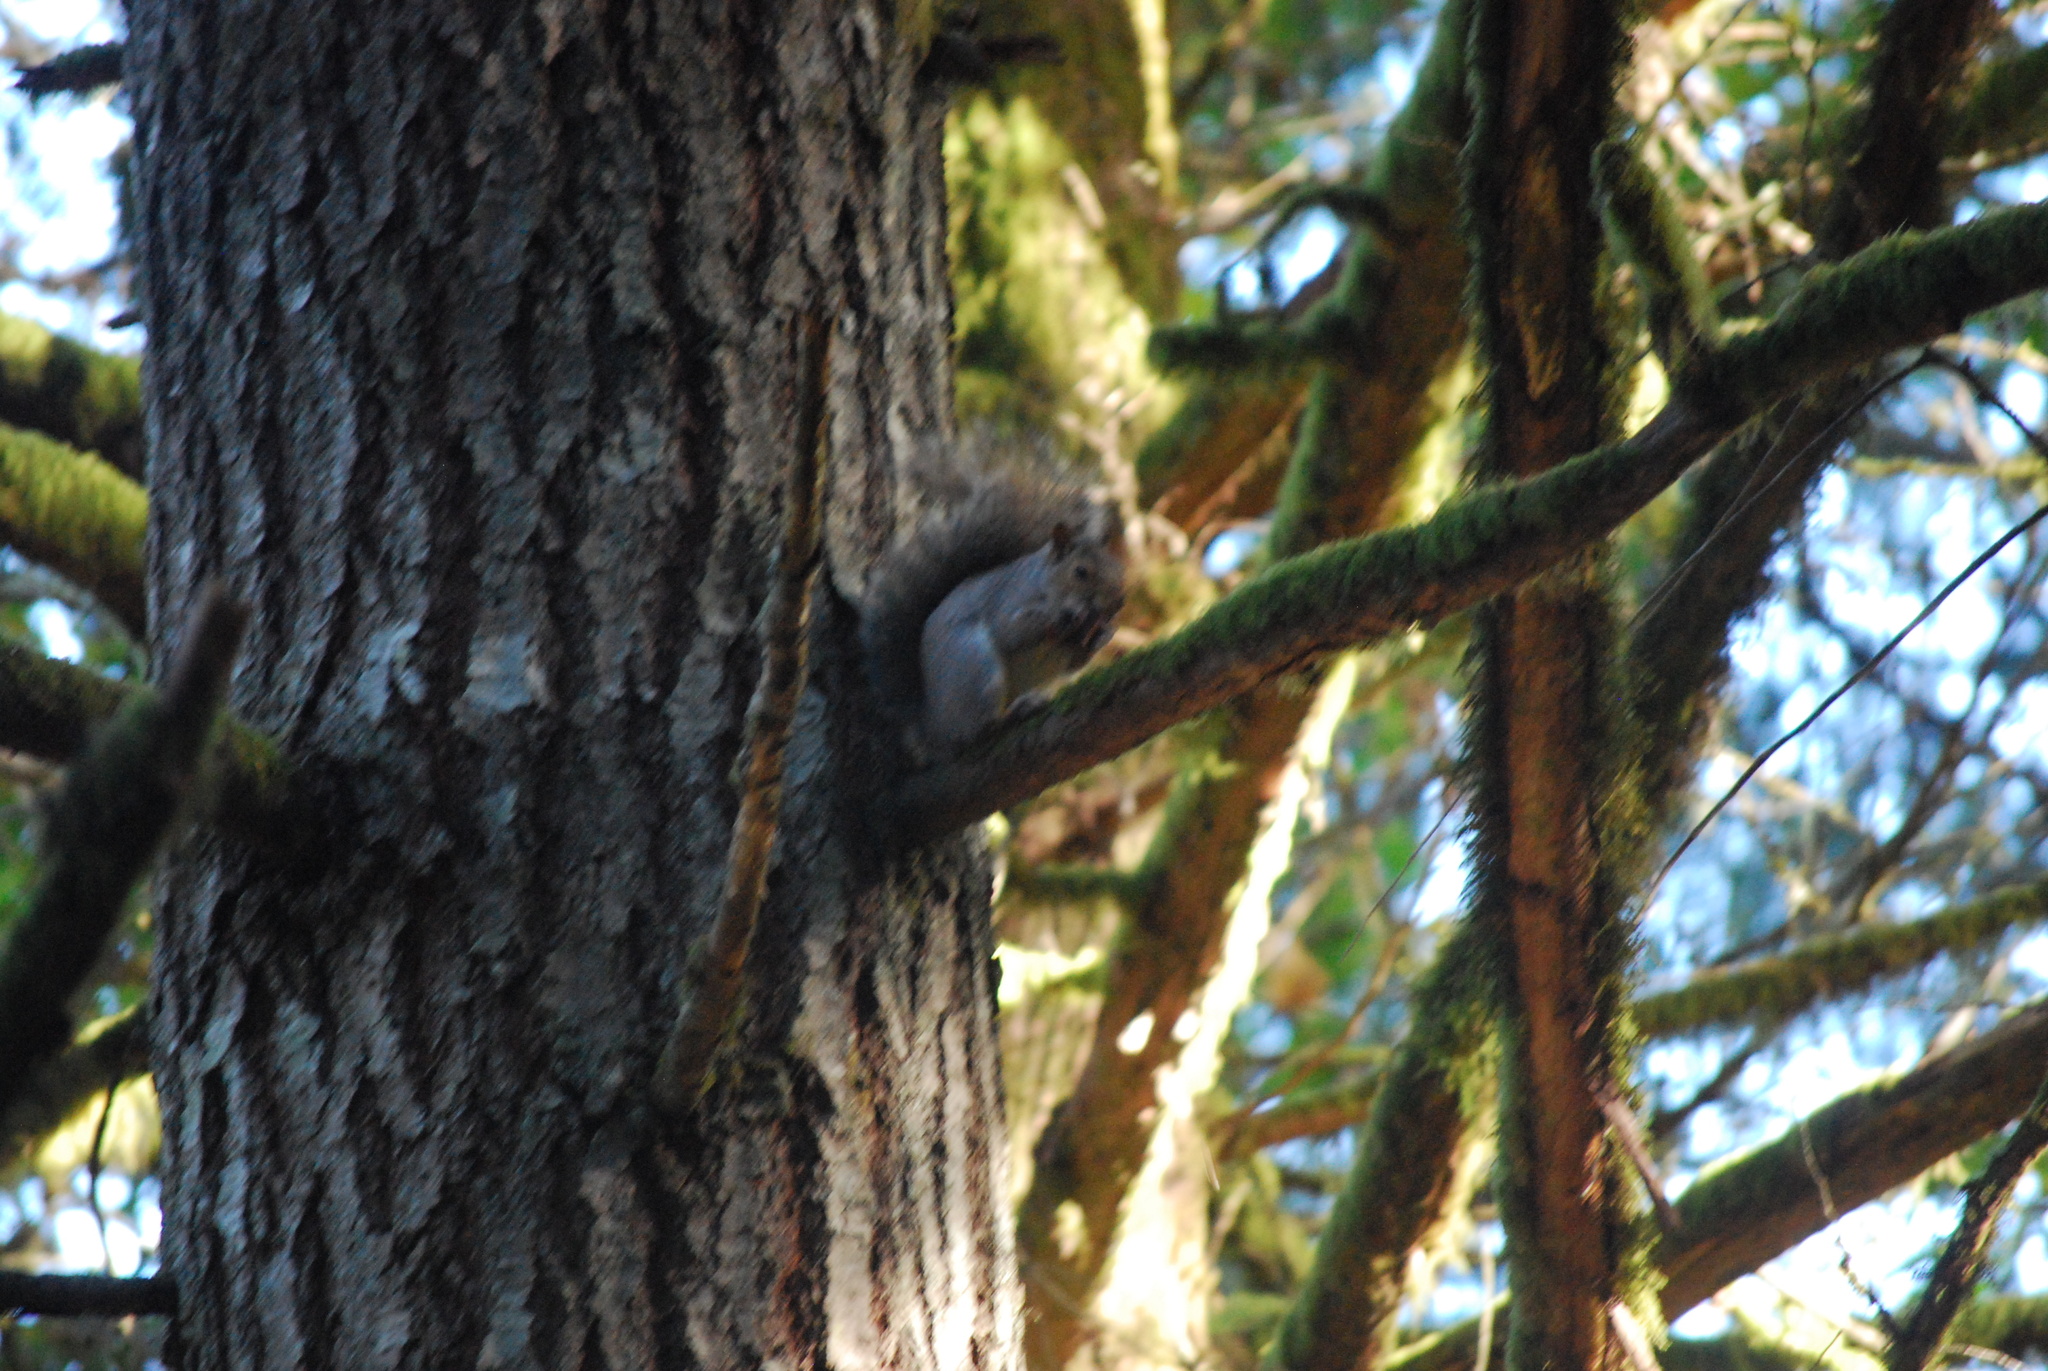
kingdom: Animalia
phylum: Chordata
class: Mammalia
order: Rodentia
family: Sciuridae
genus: Sciurus
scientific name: Sciurus carolinensis
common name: Eastern gray squirrel
